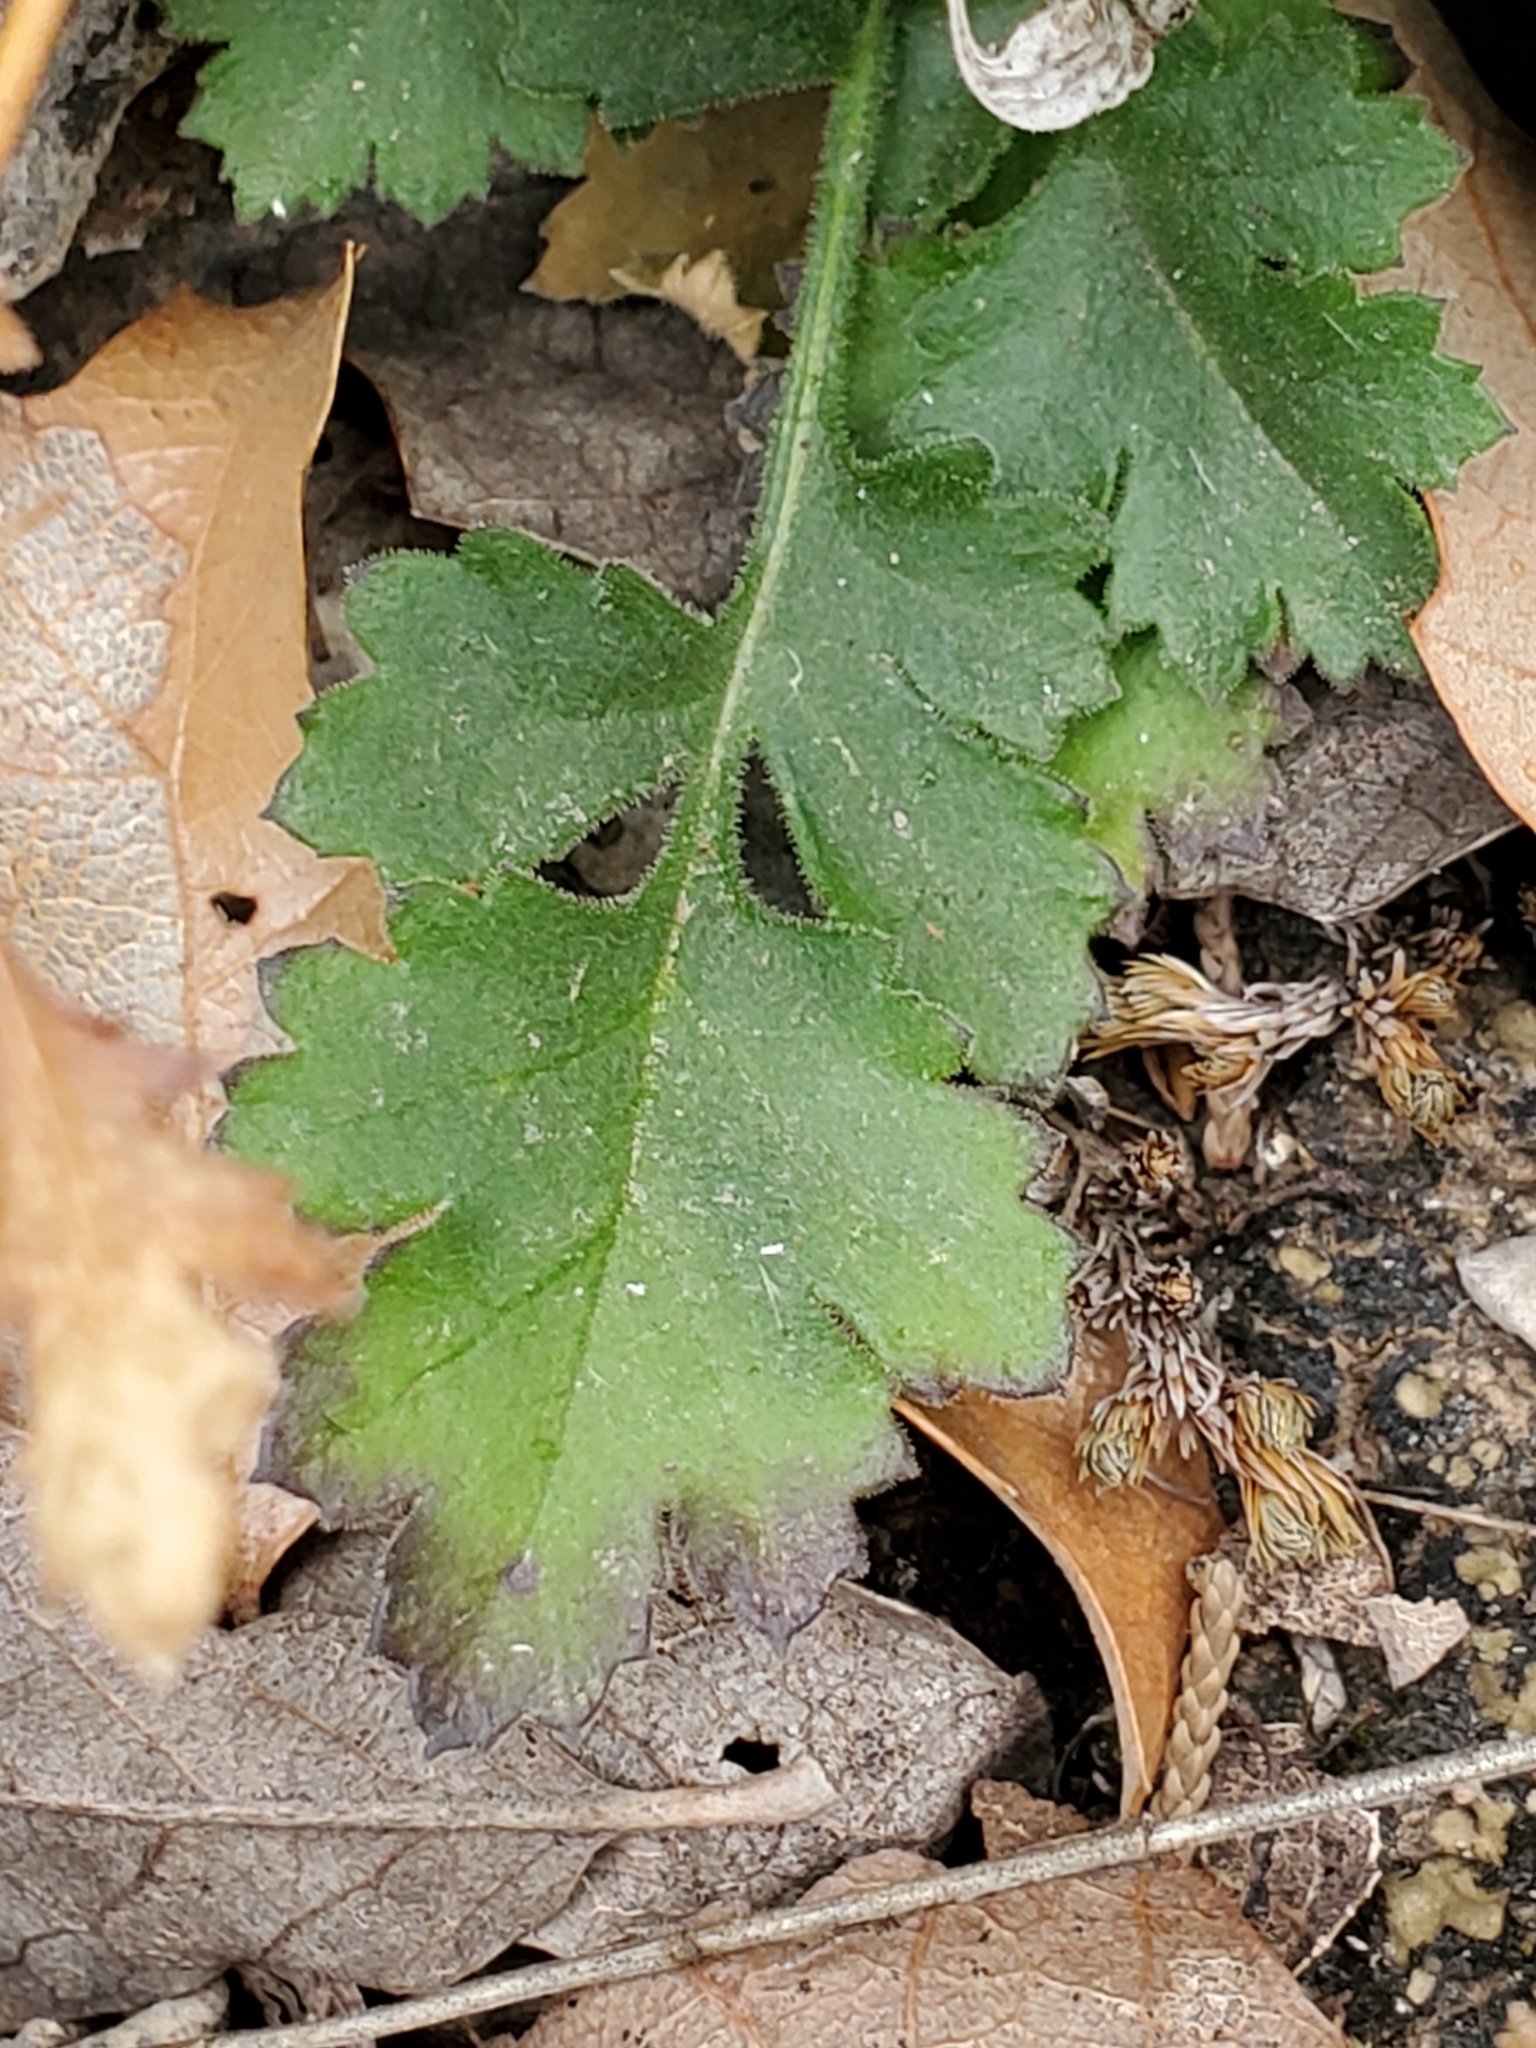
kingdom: Plantae
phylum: Tracheophyta
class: Magnoliopsida
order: Ericales
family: Polemoniaceae
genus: Giliastrum
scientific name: Giliastrum incisum
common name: Splitleaf gilia
